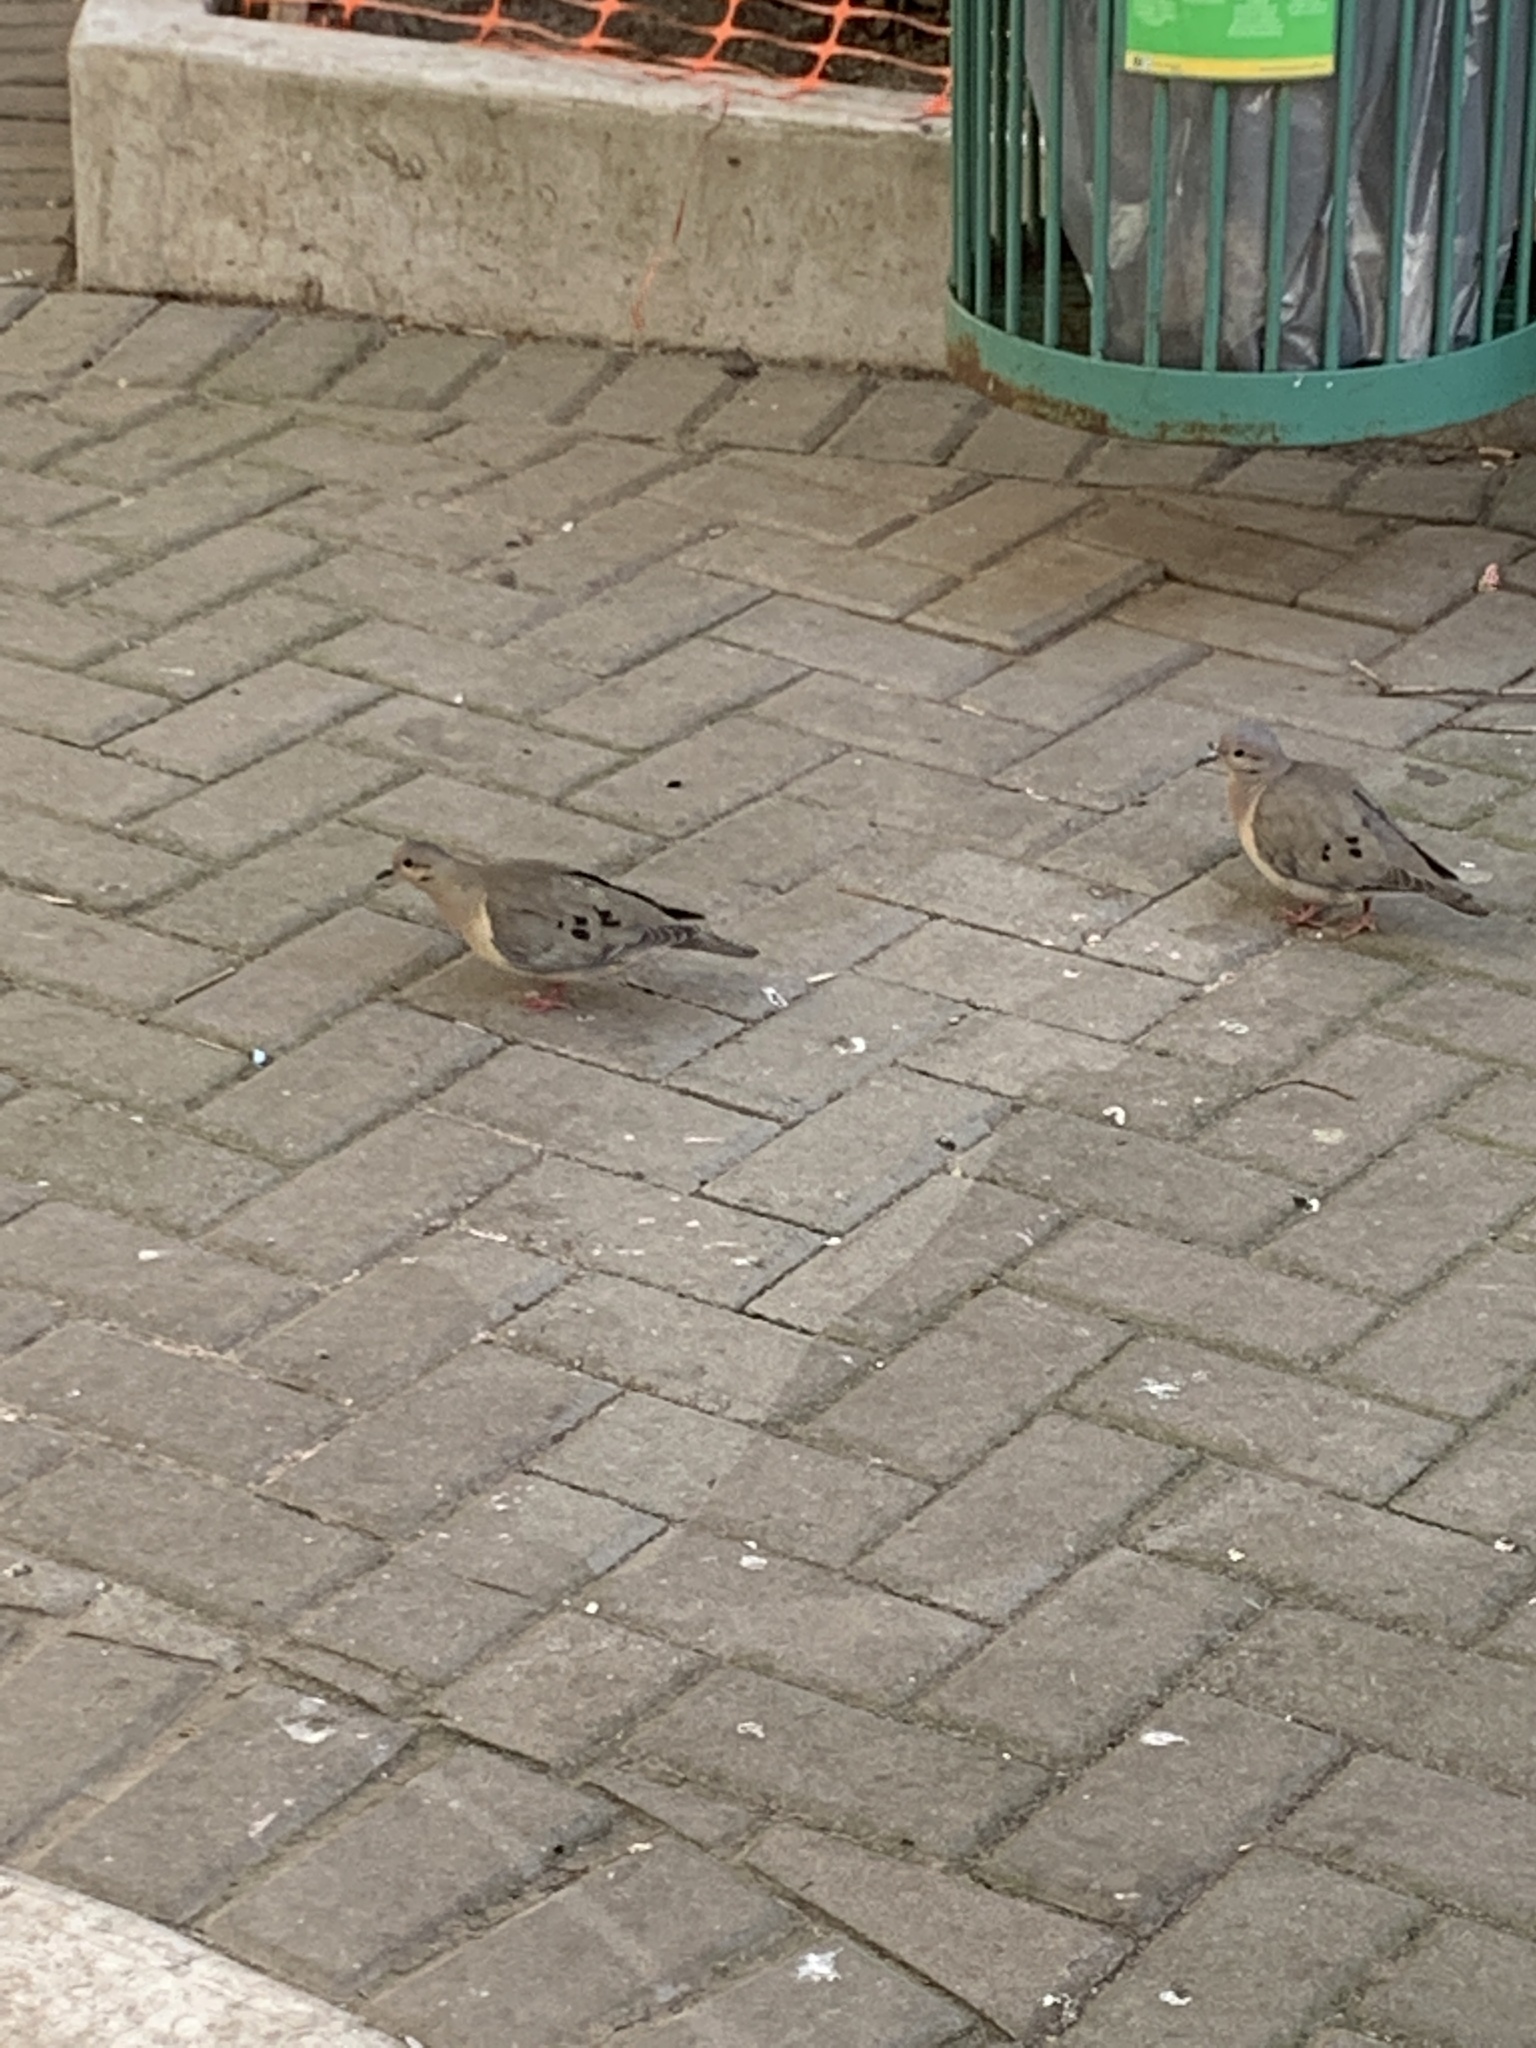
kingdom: Animalia
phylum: Chordata
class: Aves
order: Columbiformes
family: Columbidae
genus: Zenaida
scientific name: Zenaida auriculata
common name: Eared dove
